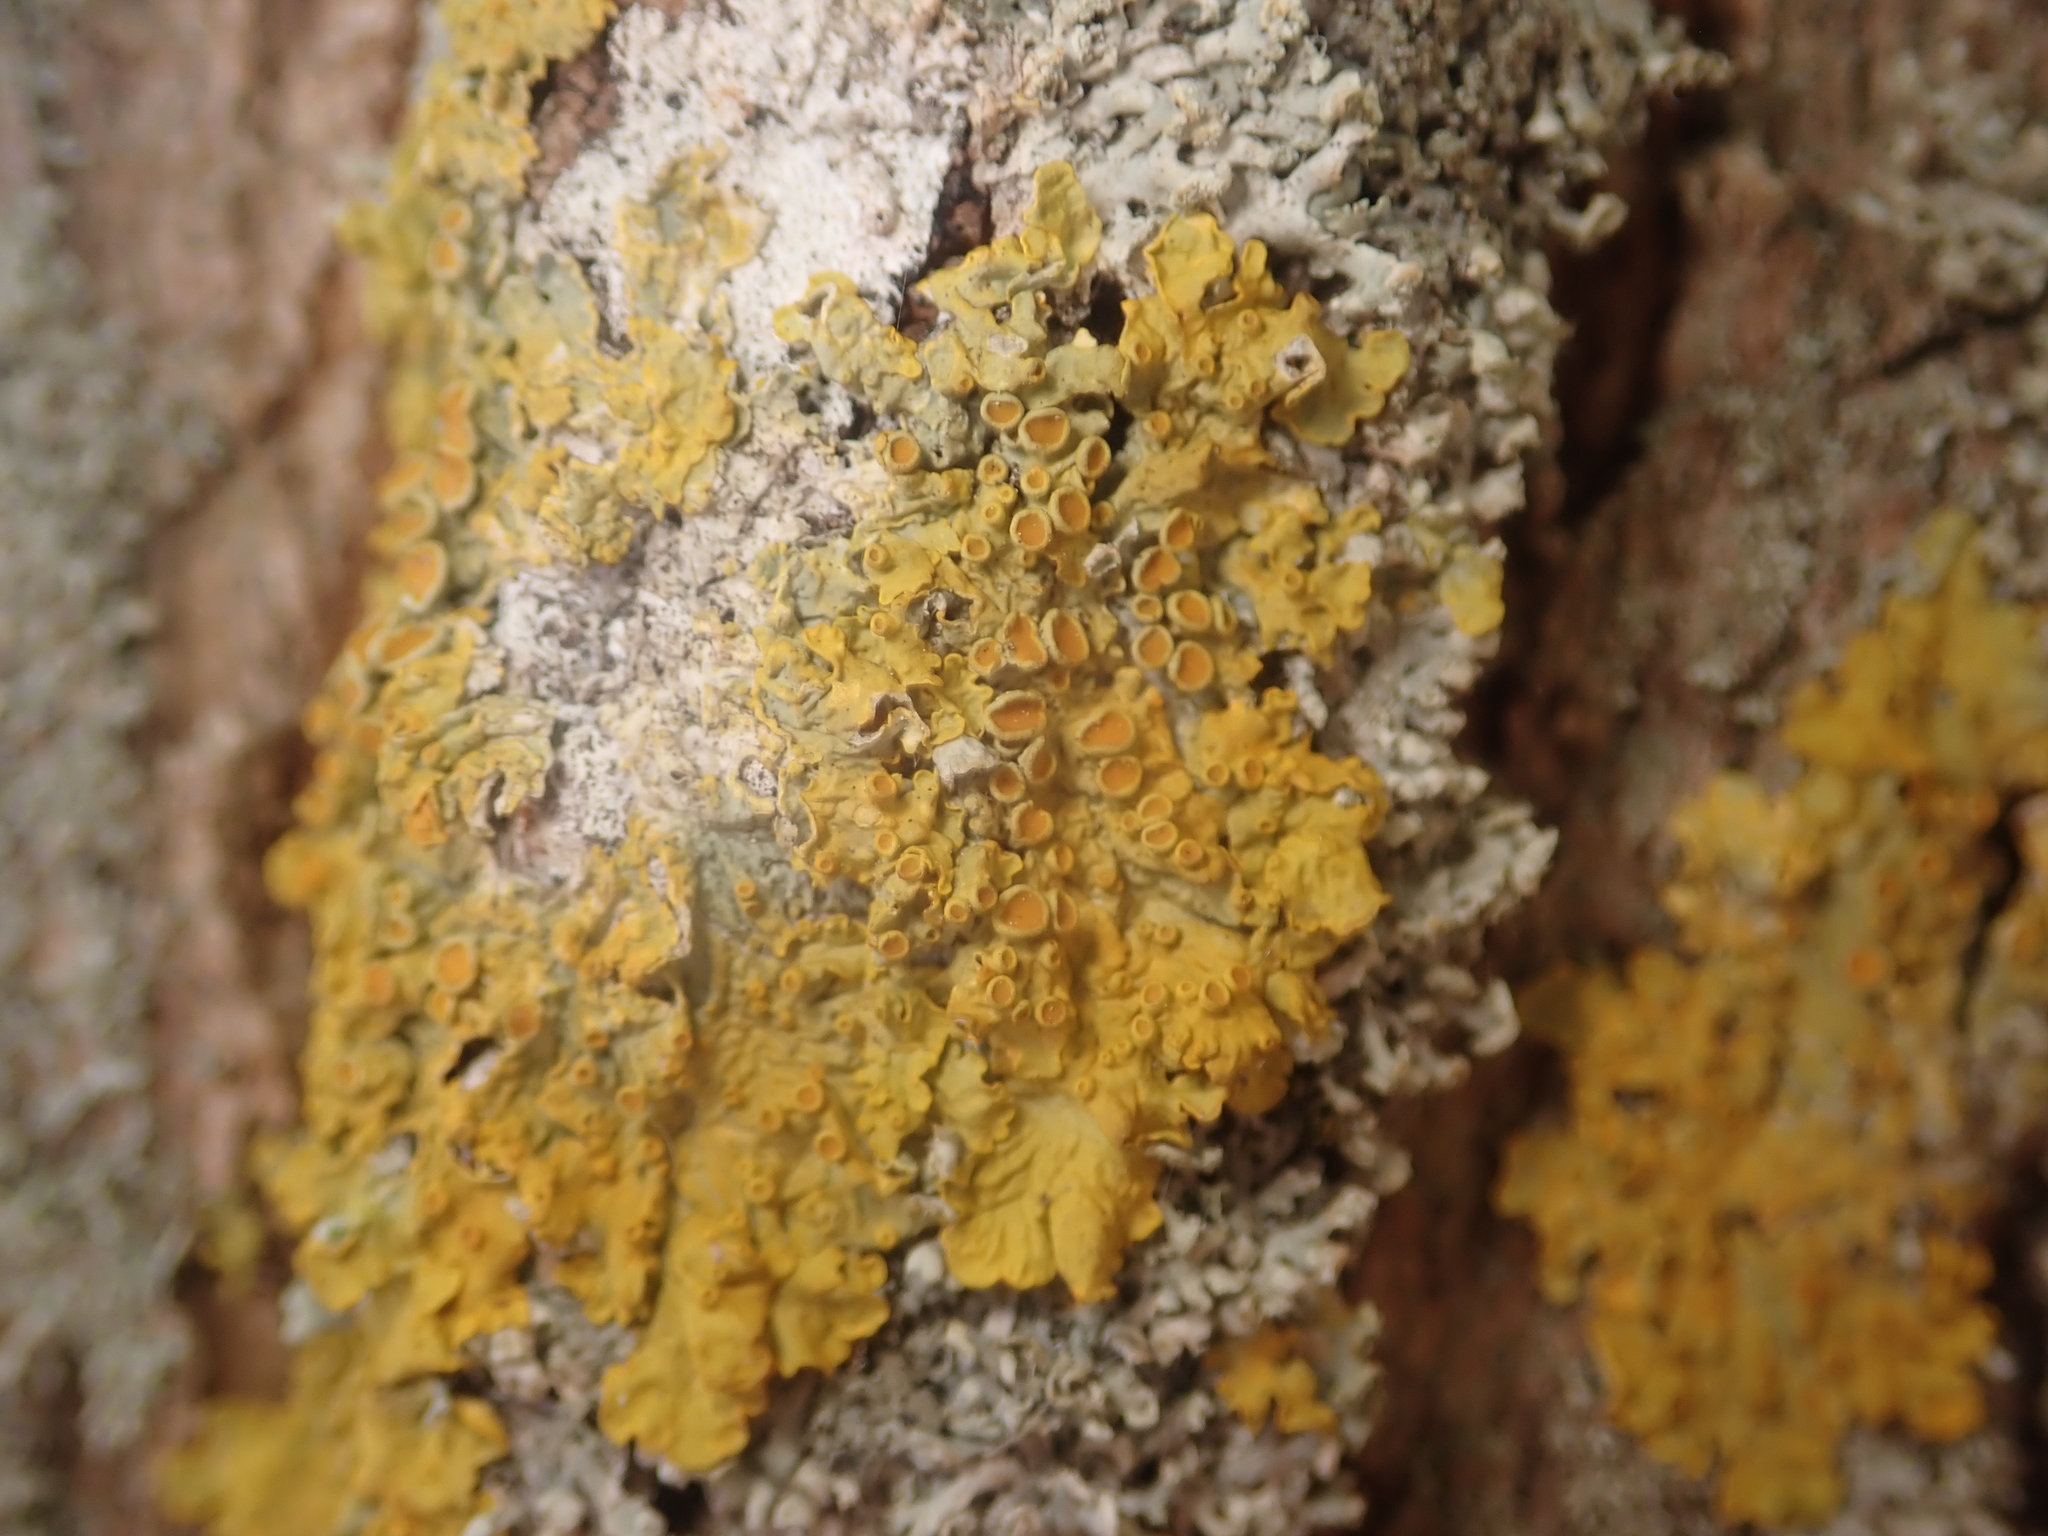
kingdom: Fungi
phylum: Ascomycota
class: Lecanoromycetes
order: Teloschistales
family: Teloschistaceae
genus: Xanthoria
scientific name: Xanthoria parietina
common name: Common orange lichen
